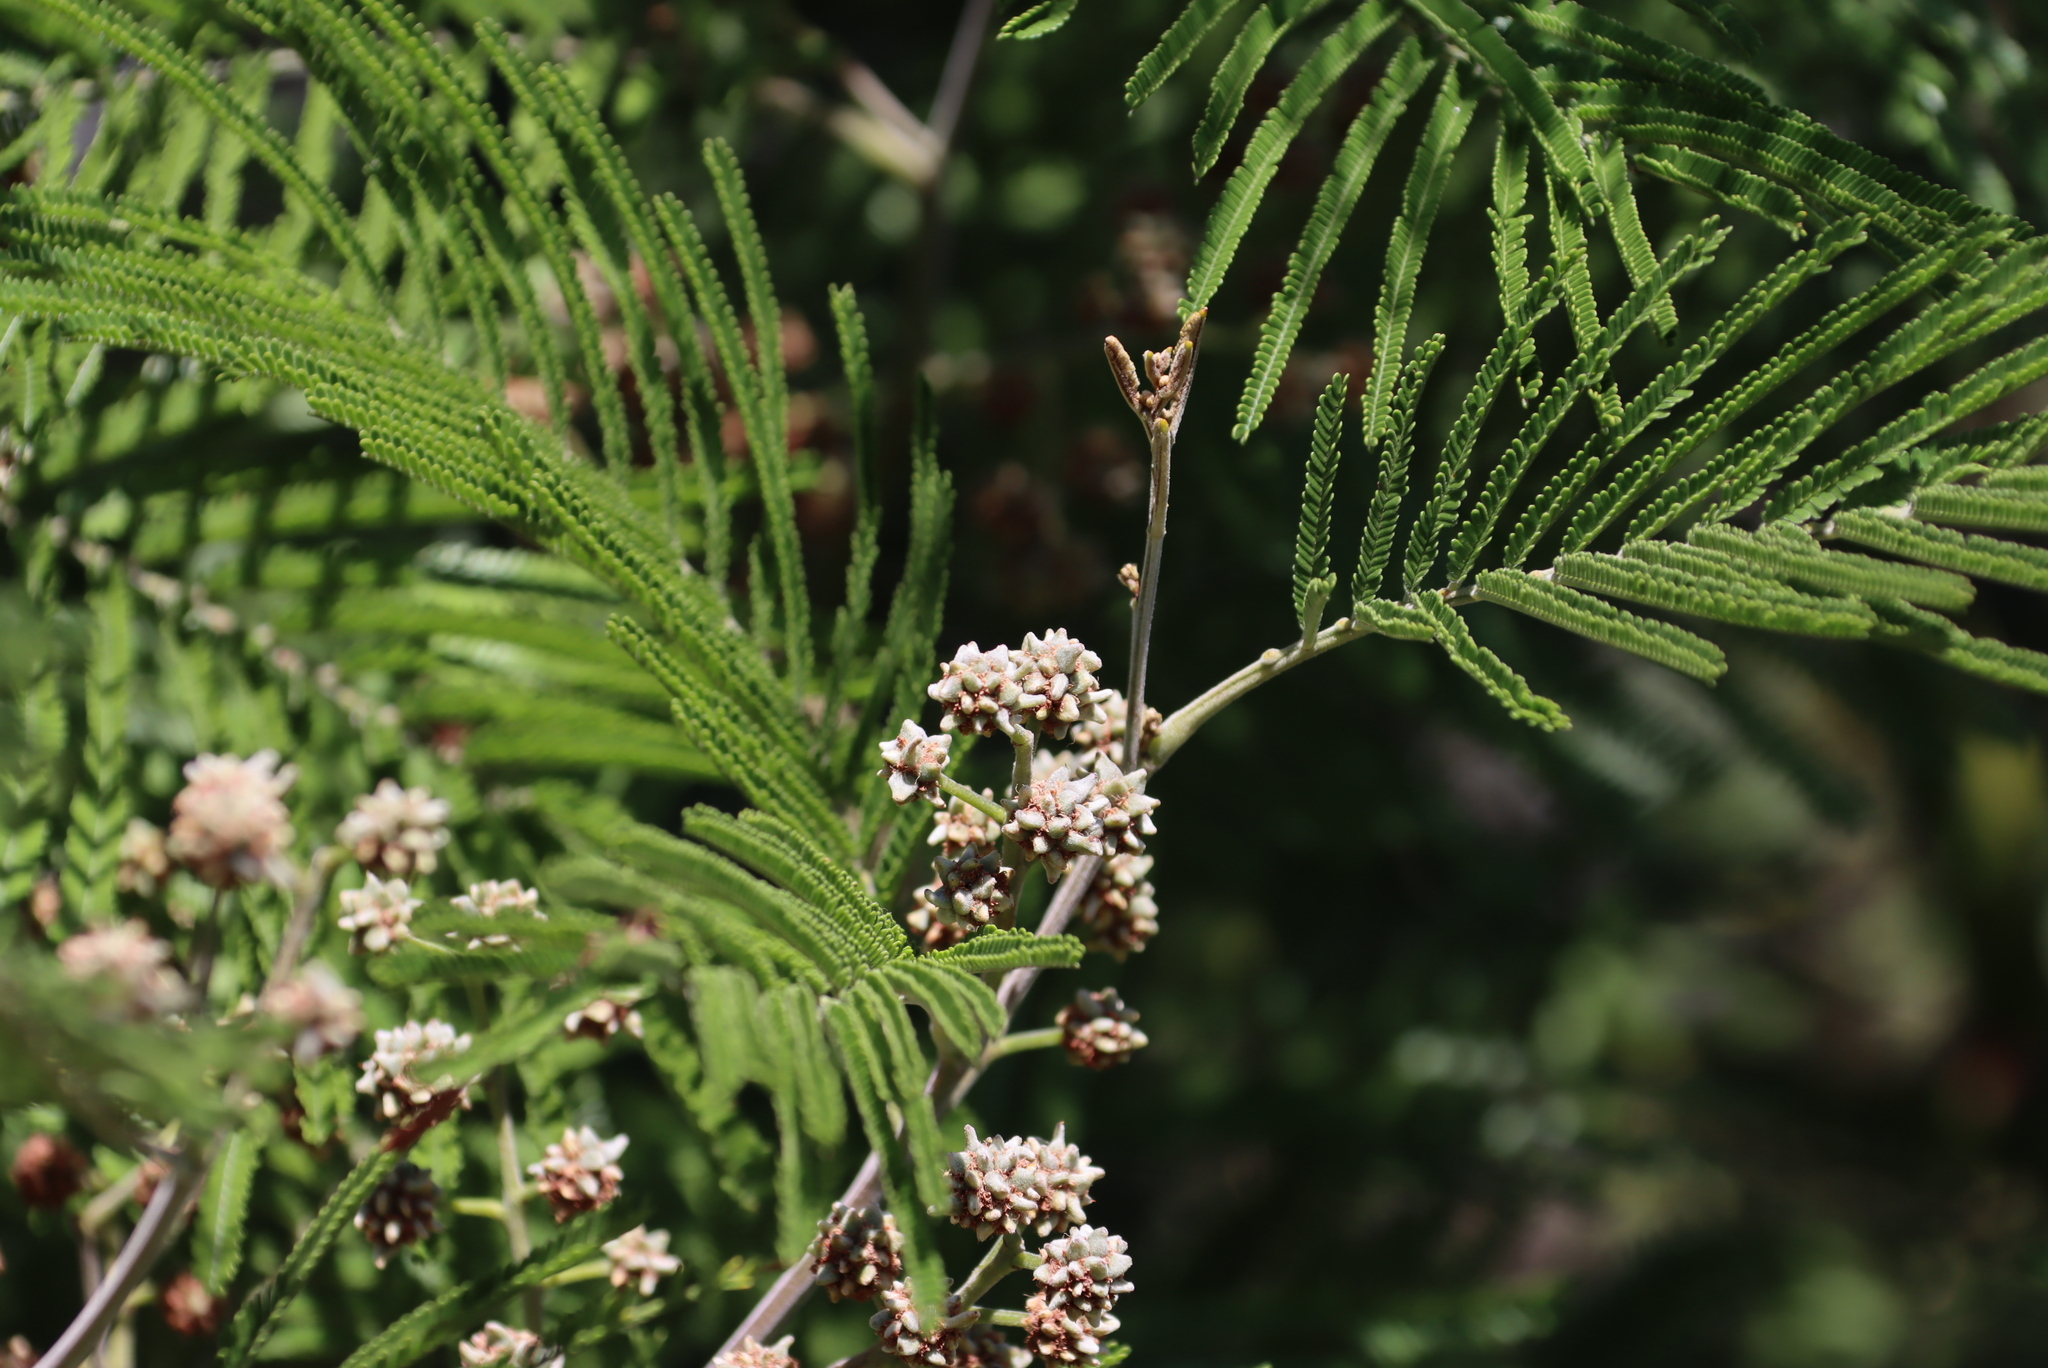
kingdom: Animalia
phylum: Arthropoda
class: Insecta
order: Diptera
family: Cecidomyiidae
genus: Dasineura
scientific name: Dasineura rubiformis
